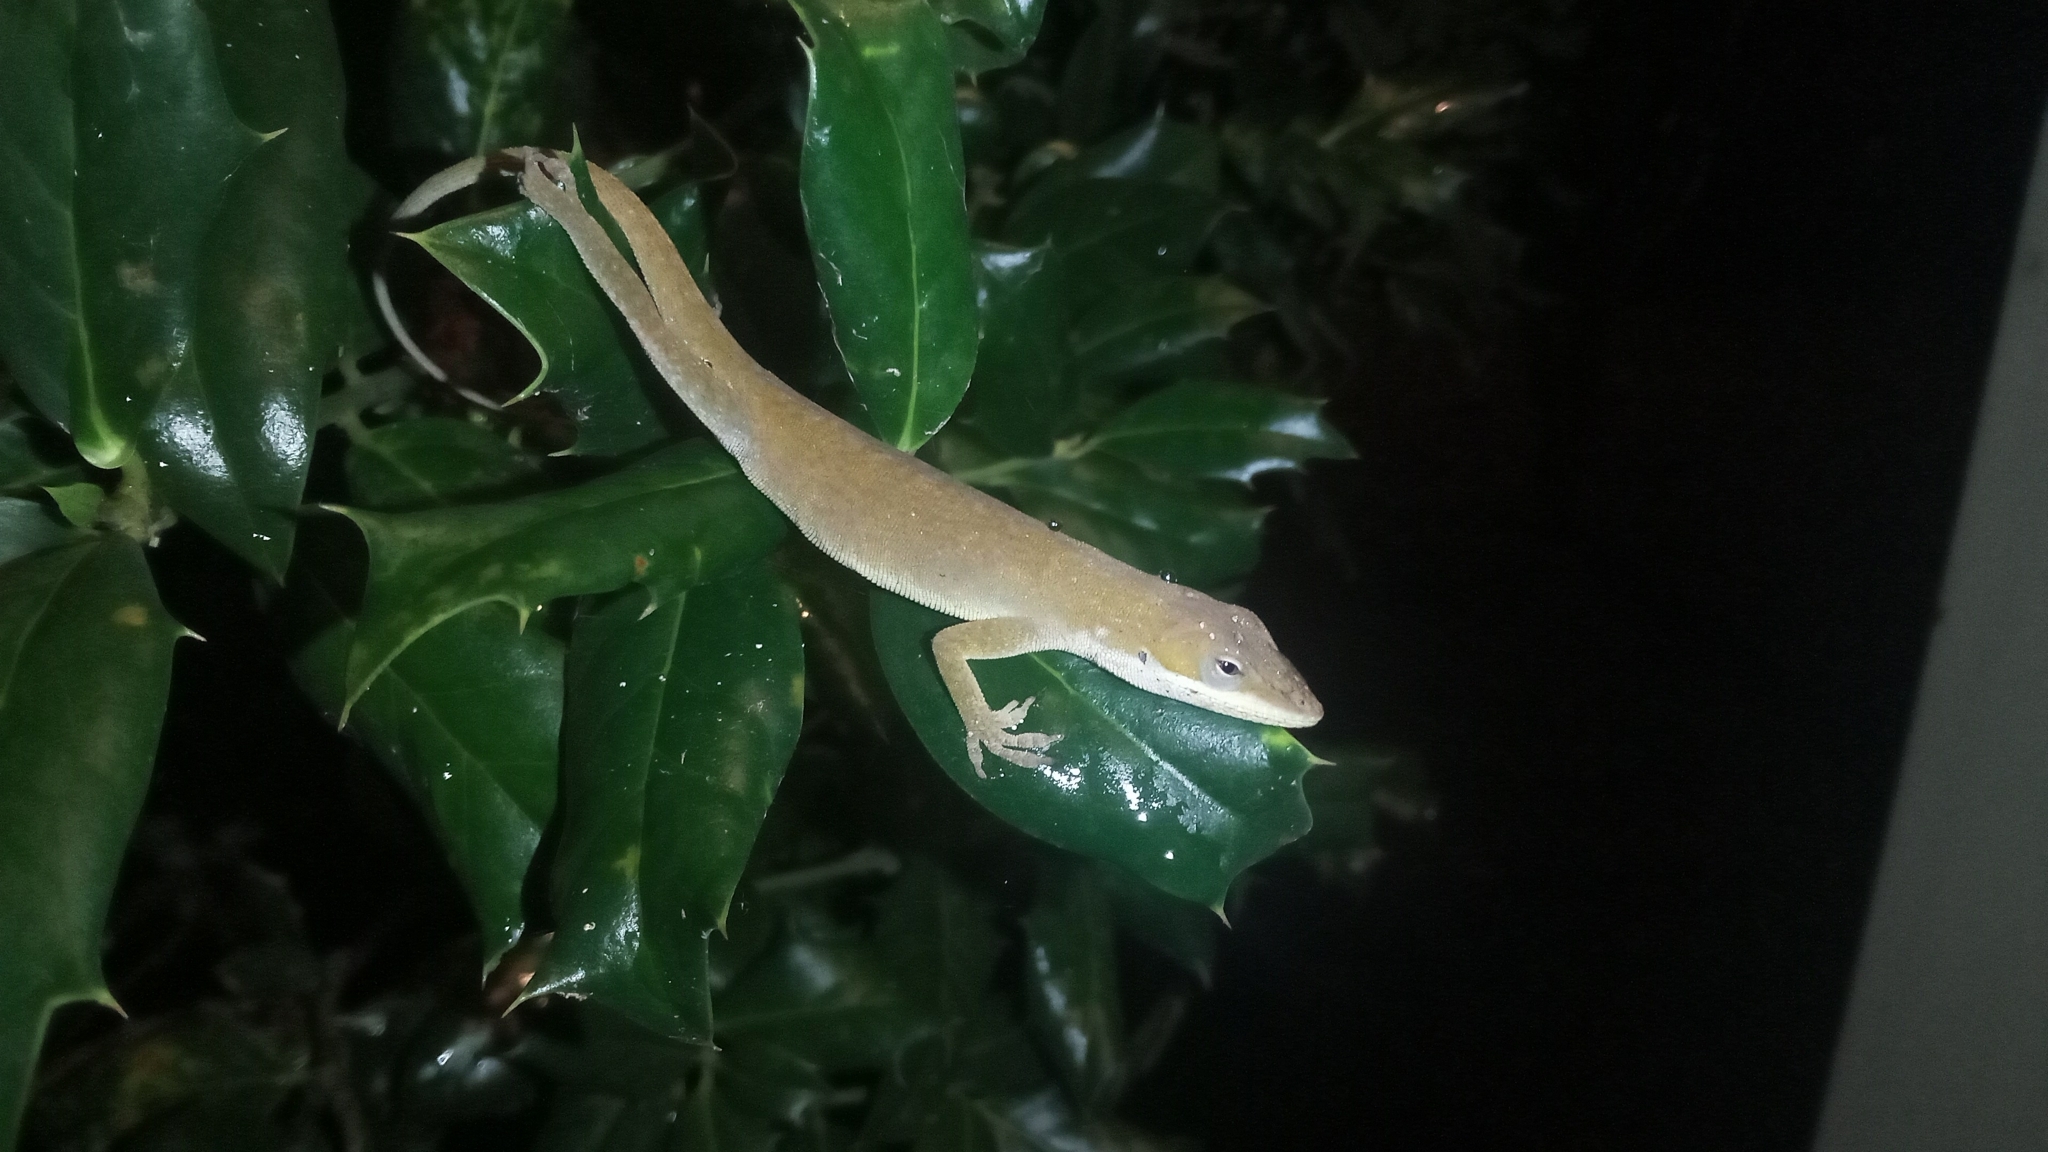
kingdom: Animalia
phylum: Chordata
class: Squamata
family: Dactyloidae
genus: Anolis
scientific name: Anolis carolinensis
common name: Green anole
